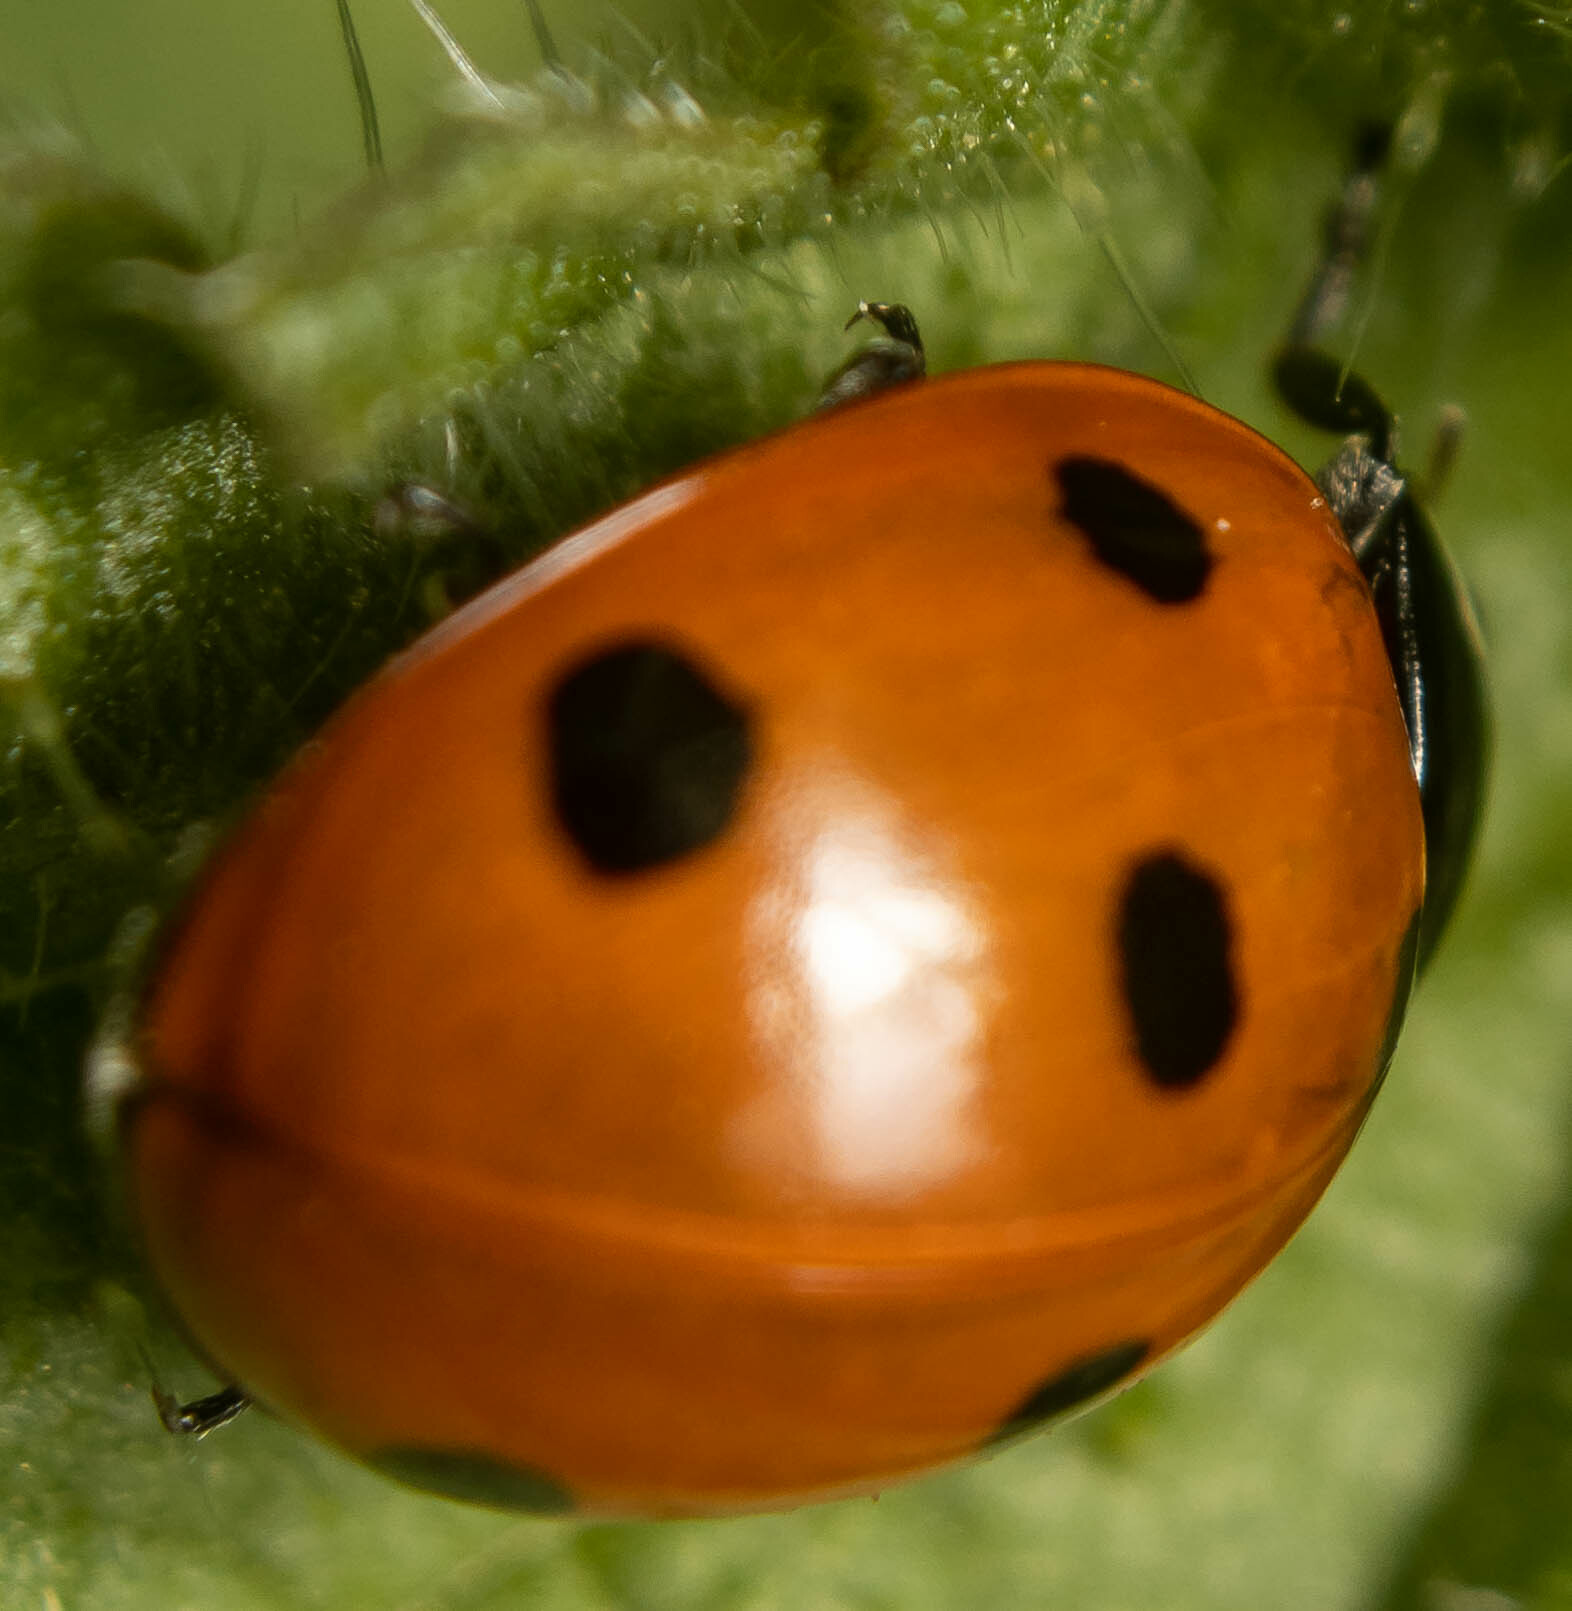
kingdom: Animalia
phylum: Arthropoda
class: Insecta
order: Coleoptera
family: Coccinellidae
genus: Coccinella
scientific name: Coccinella septempunctata
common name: Sevenspotted lady beetle
